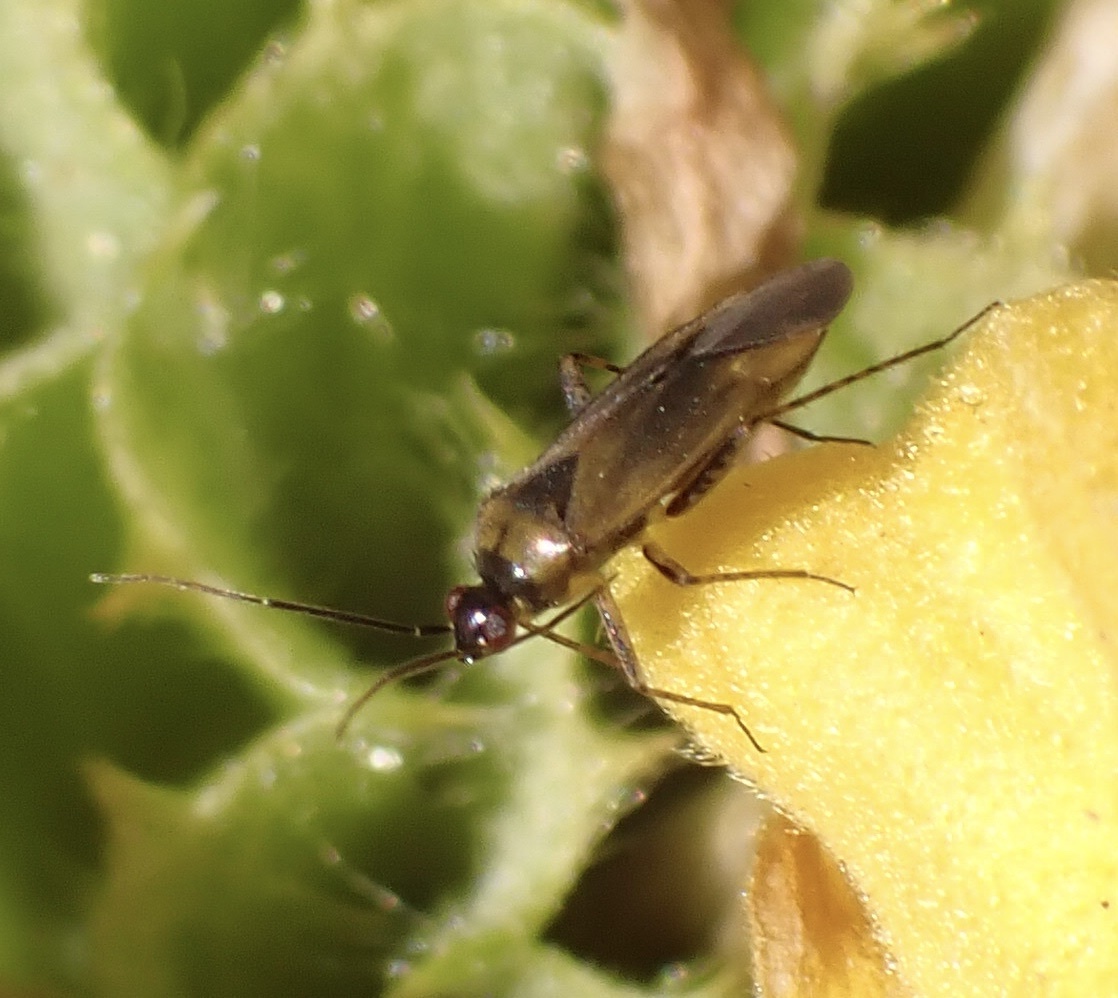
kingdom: Animalia
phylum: Arthropoda
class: Insecta
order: Hemiptera
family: Miridae
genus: Plagiognathus
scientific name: Plagiognathus arbustorum
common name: Plant bug
